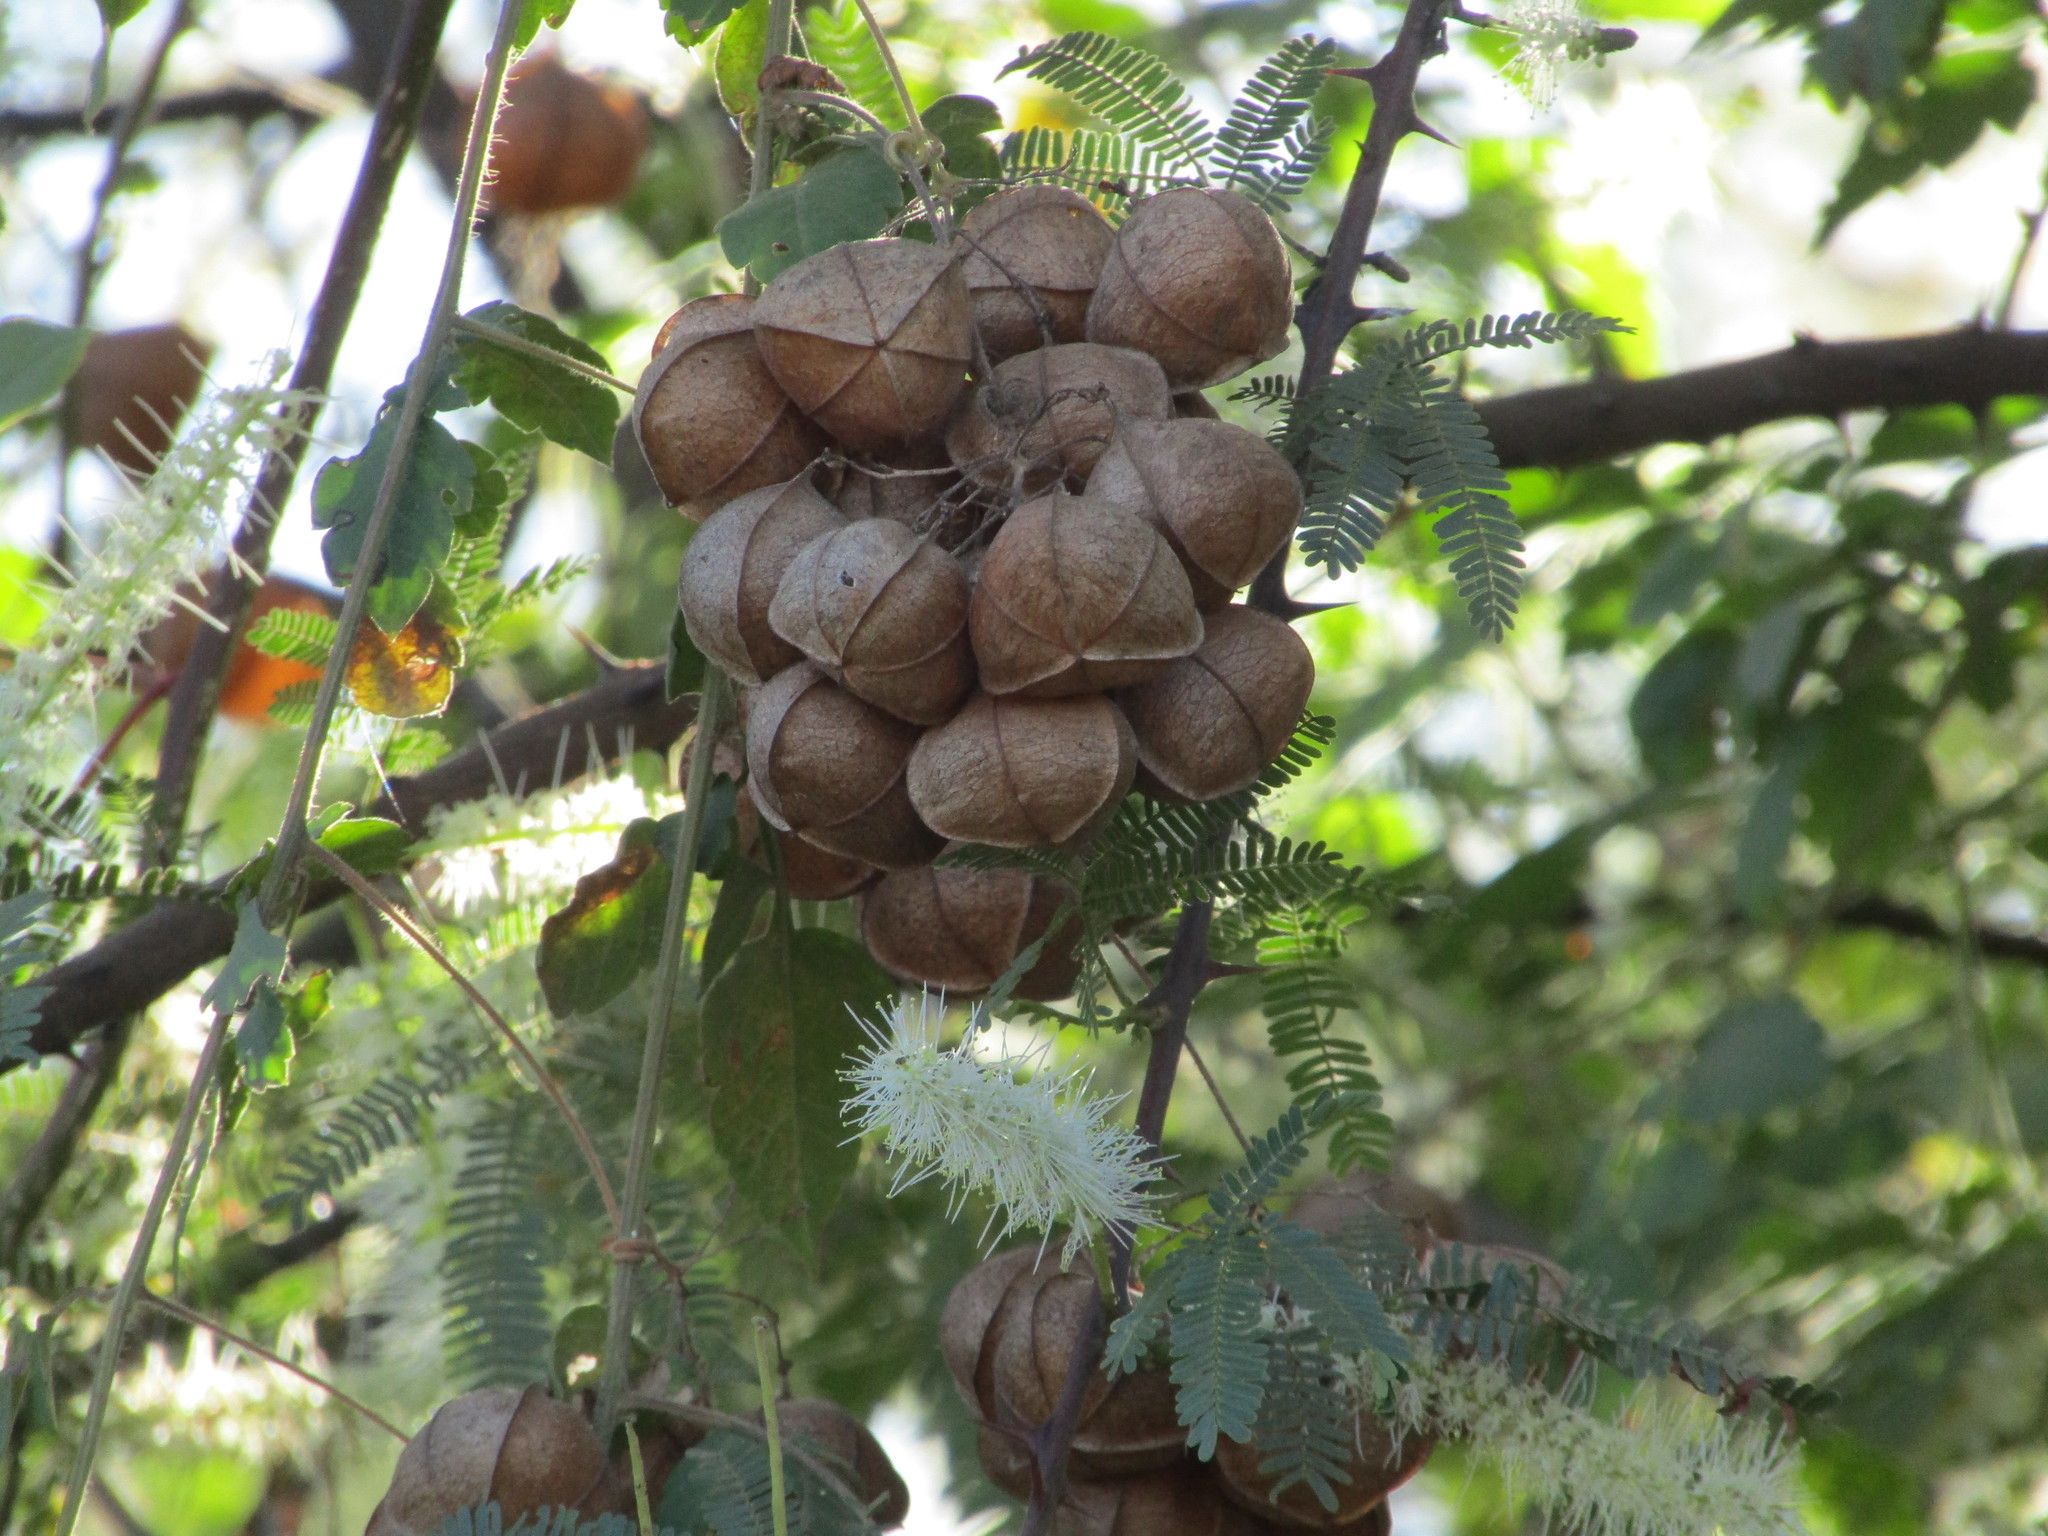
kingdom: Plantae
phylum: Tracheophyta
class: Magnoliopsida
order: Sapindales
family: Sapindaceae
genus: Cardiospermum
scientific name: Cardiospermum corindum
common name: Faux persil
